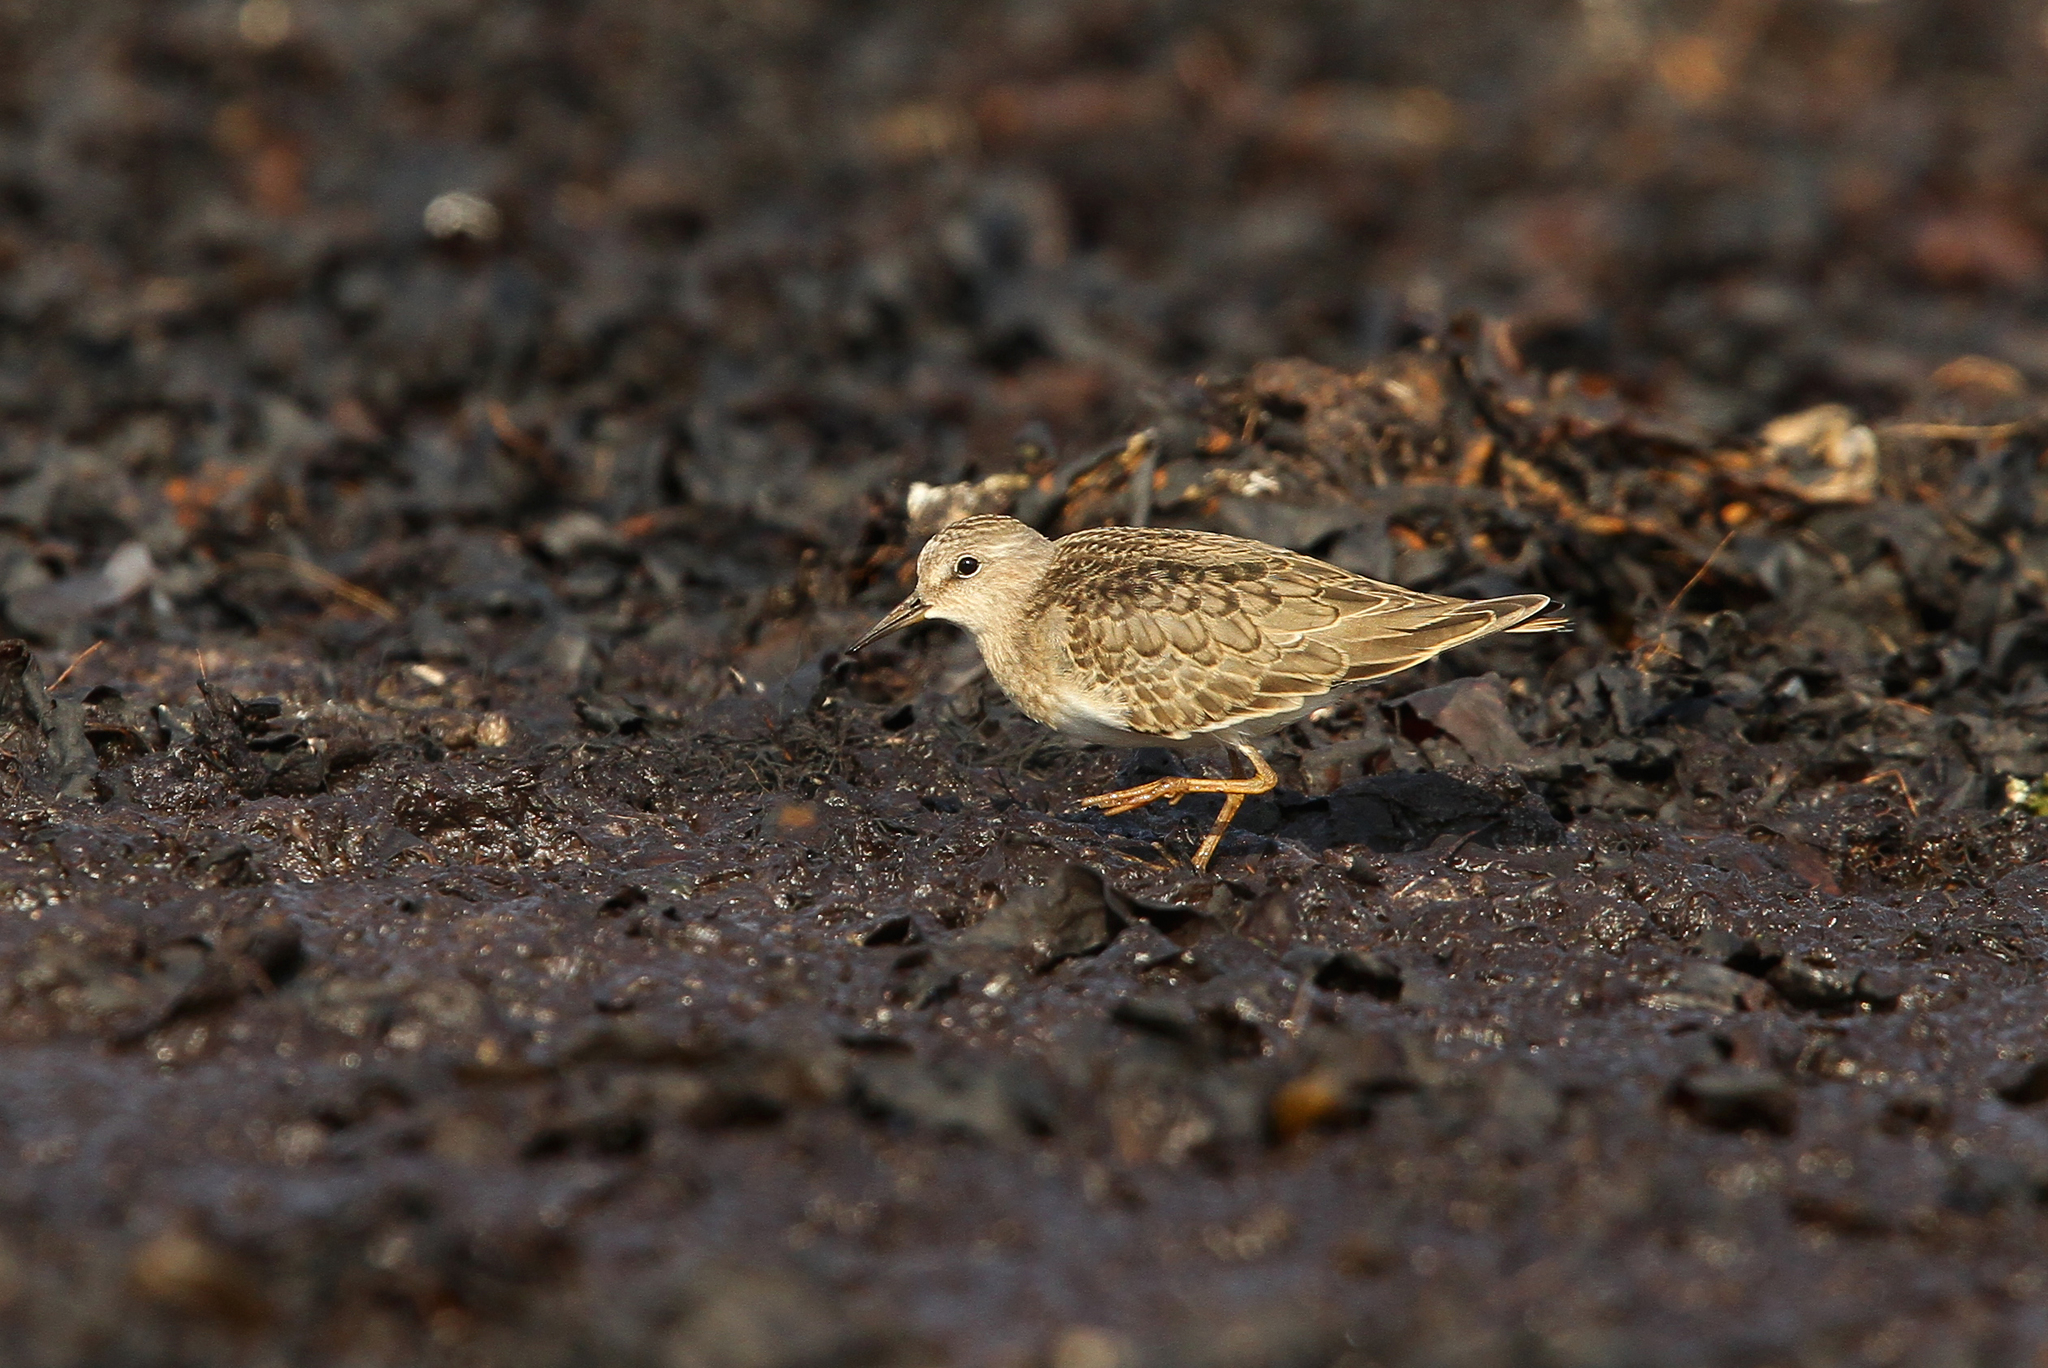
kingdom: Animalia
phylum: Chordata
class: Aves
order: Charadriiformes
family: Scolopacidae
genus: Calidris
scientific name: Calidris temminckii
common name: Temminck's stint
